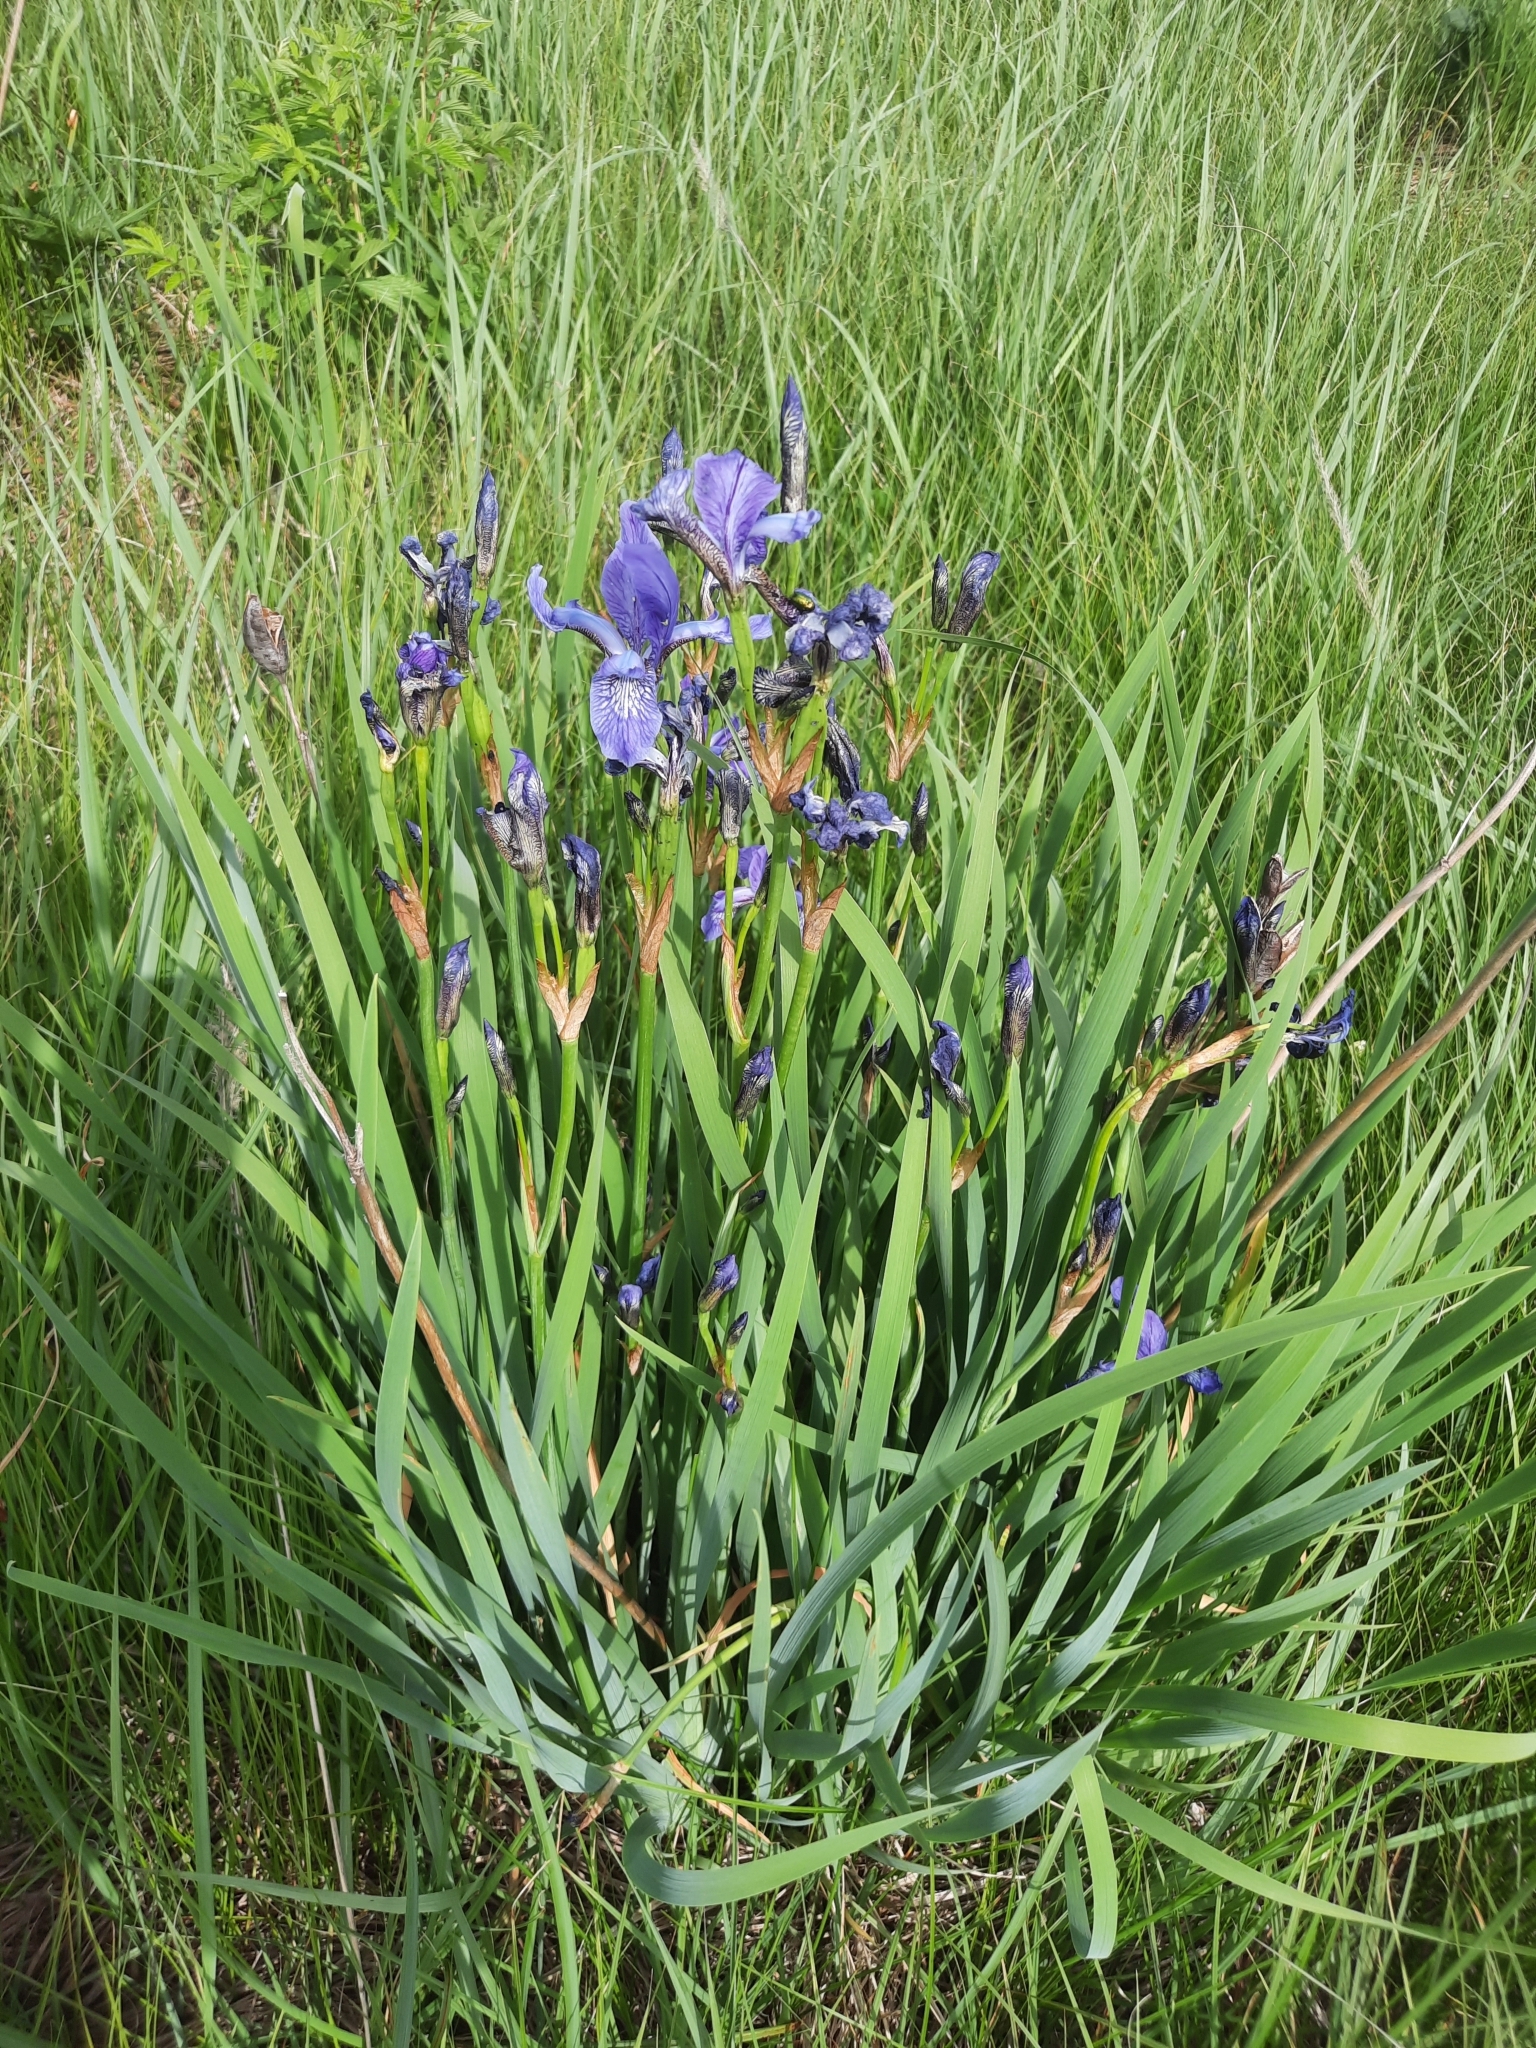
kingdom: Plantae
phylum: Tracheophyta
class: Liliopsida
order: Asparagales
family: Iridaceae
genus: Iris
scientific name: Iris sibirica
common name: Siberian iris
